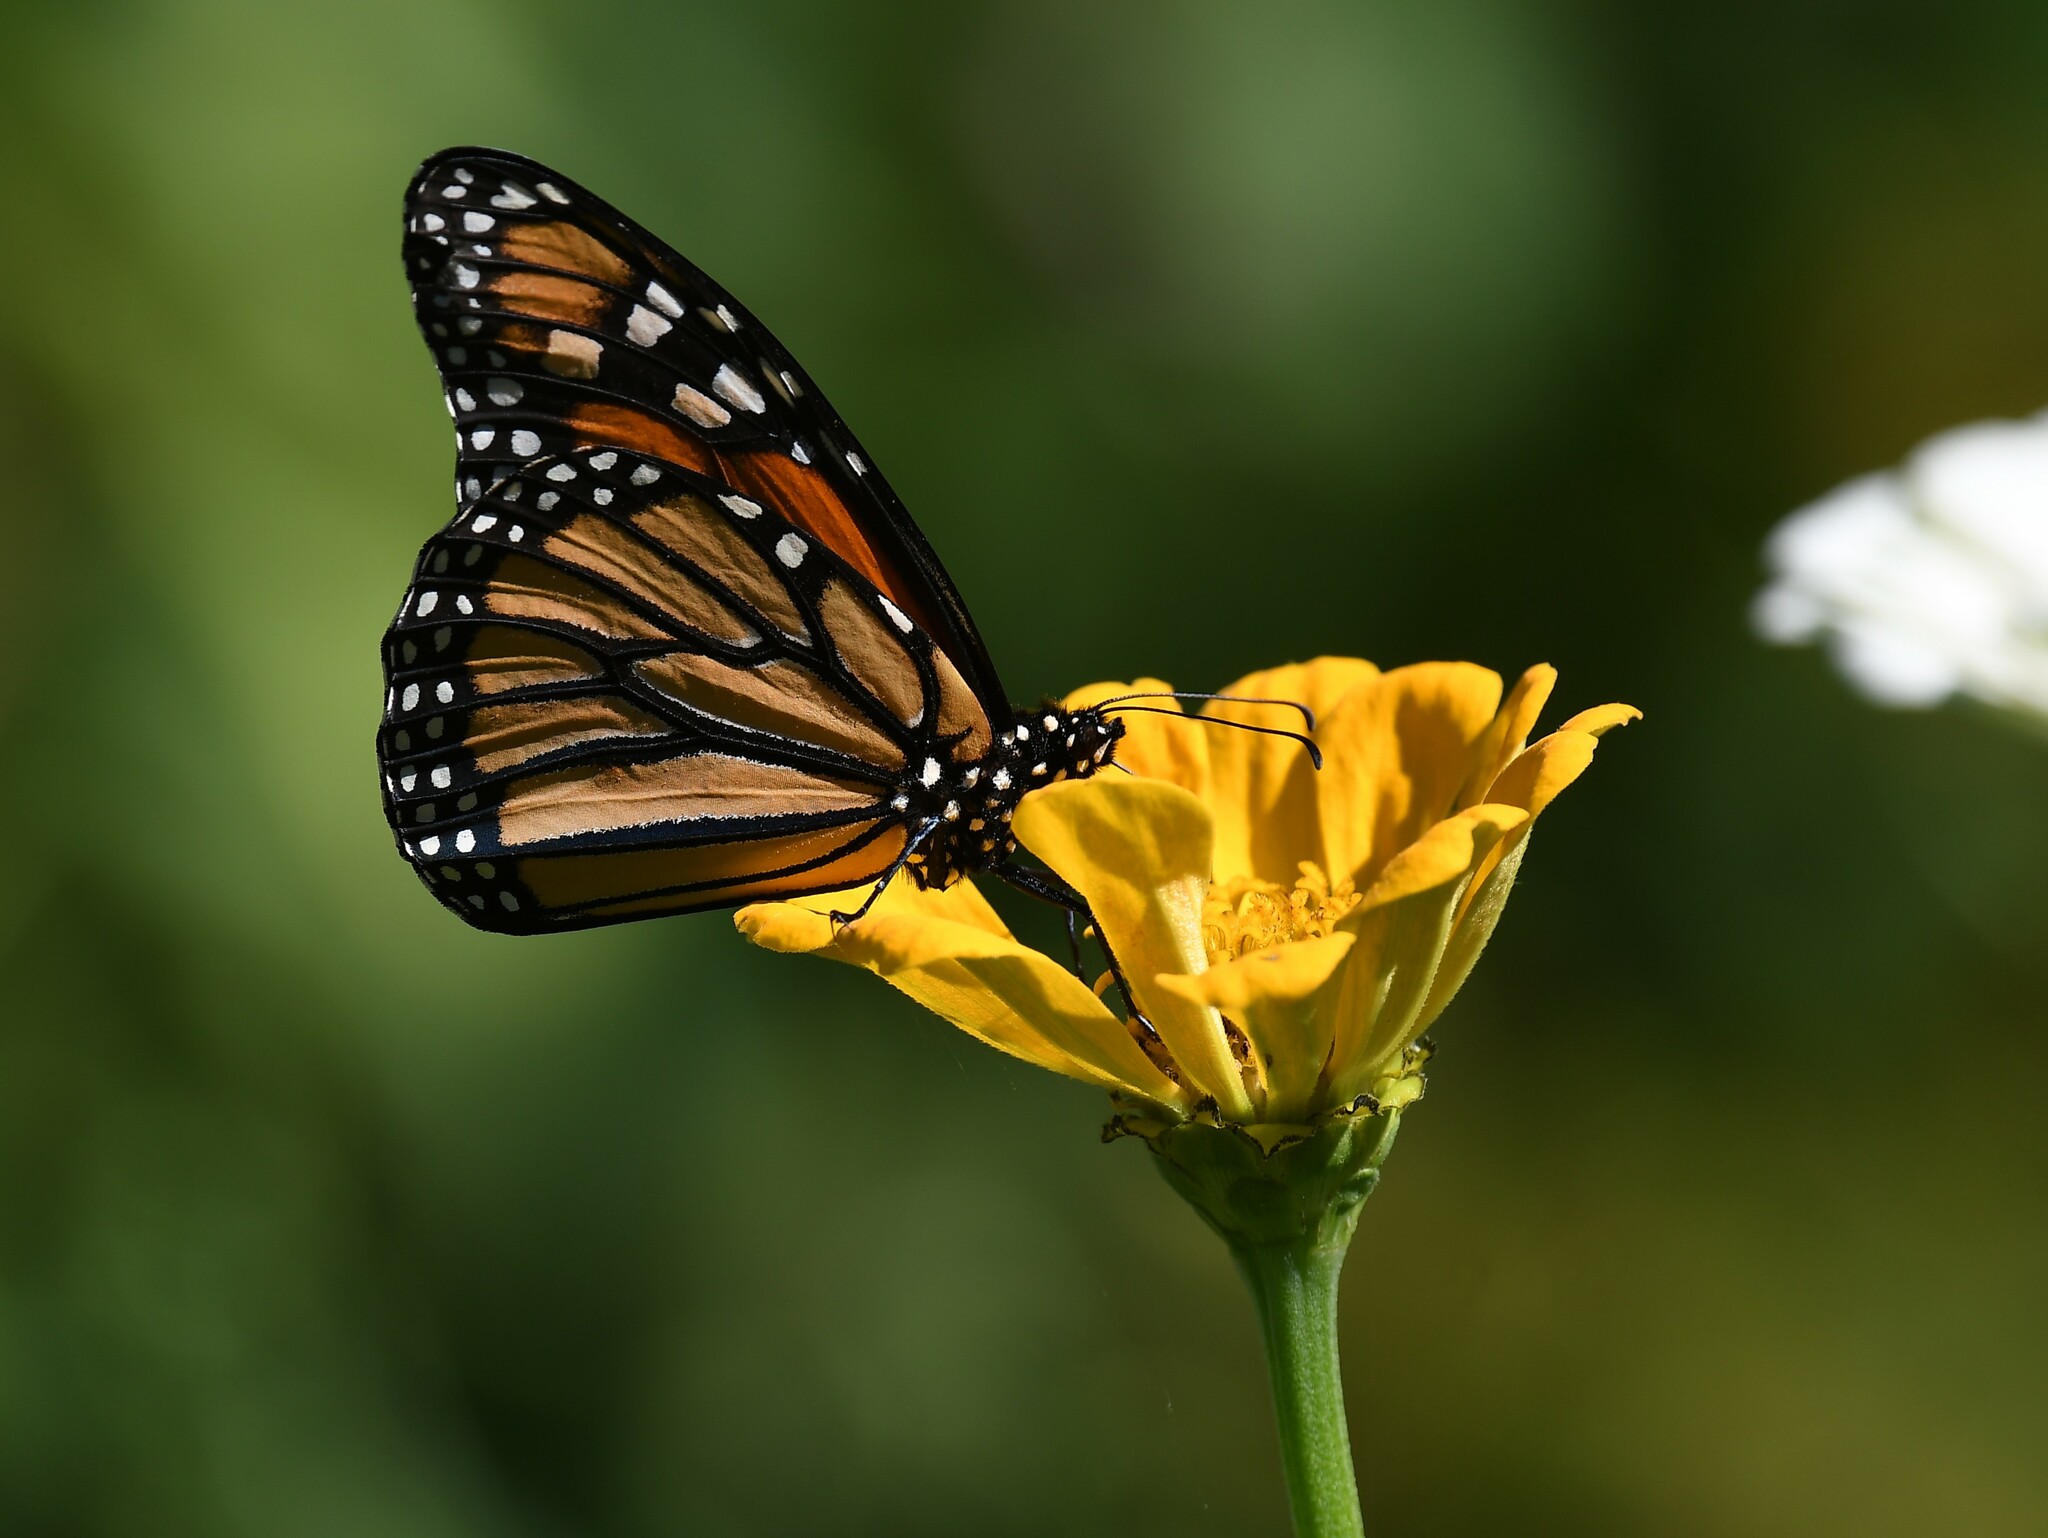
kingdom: Animalia
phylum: Arthropoda
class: Insecta
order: Lepidoptera
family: Nymphalidae
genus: Danaus
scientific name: Danaus plexippus
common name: Monarch
